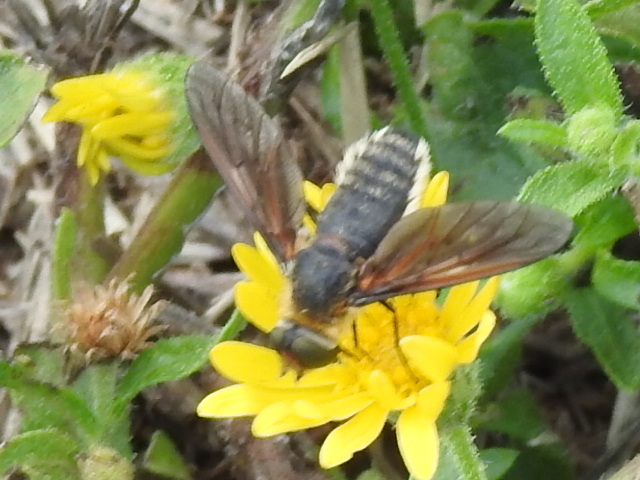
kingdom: Animalia
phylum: Arthropoda
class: Insecta
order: Diptera
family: Bombyliidae
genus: Poecilanthrax
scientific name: Poecilanthrax lucifer
